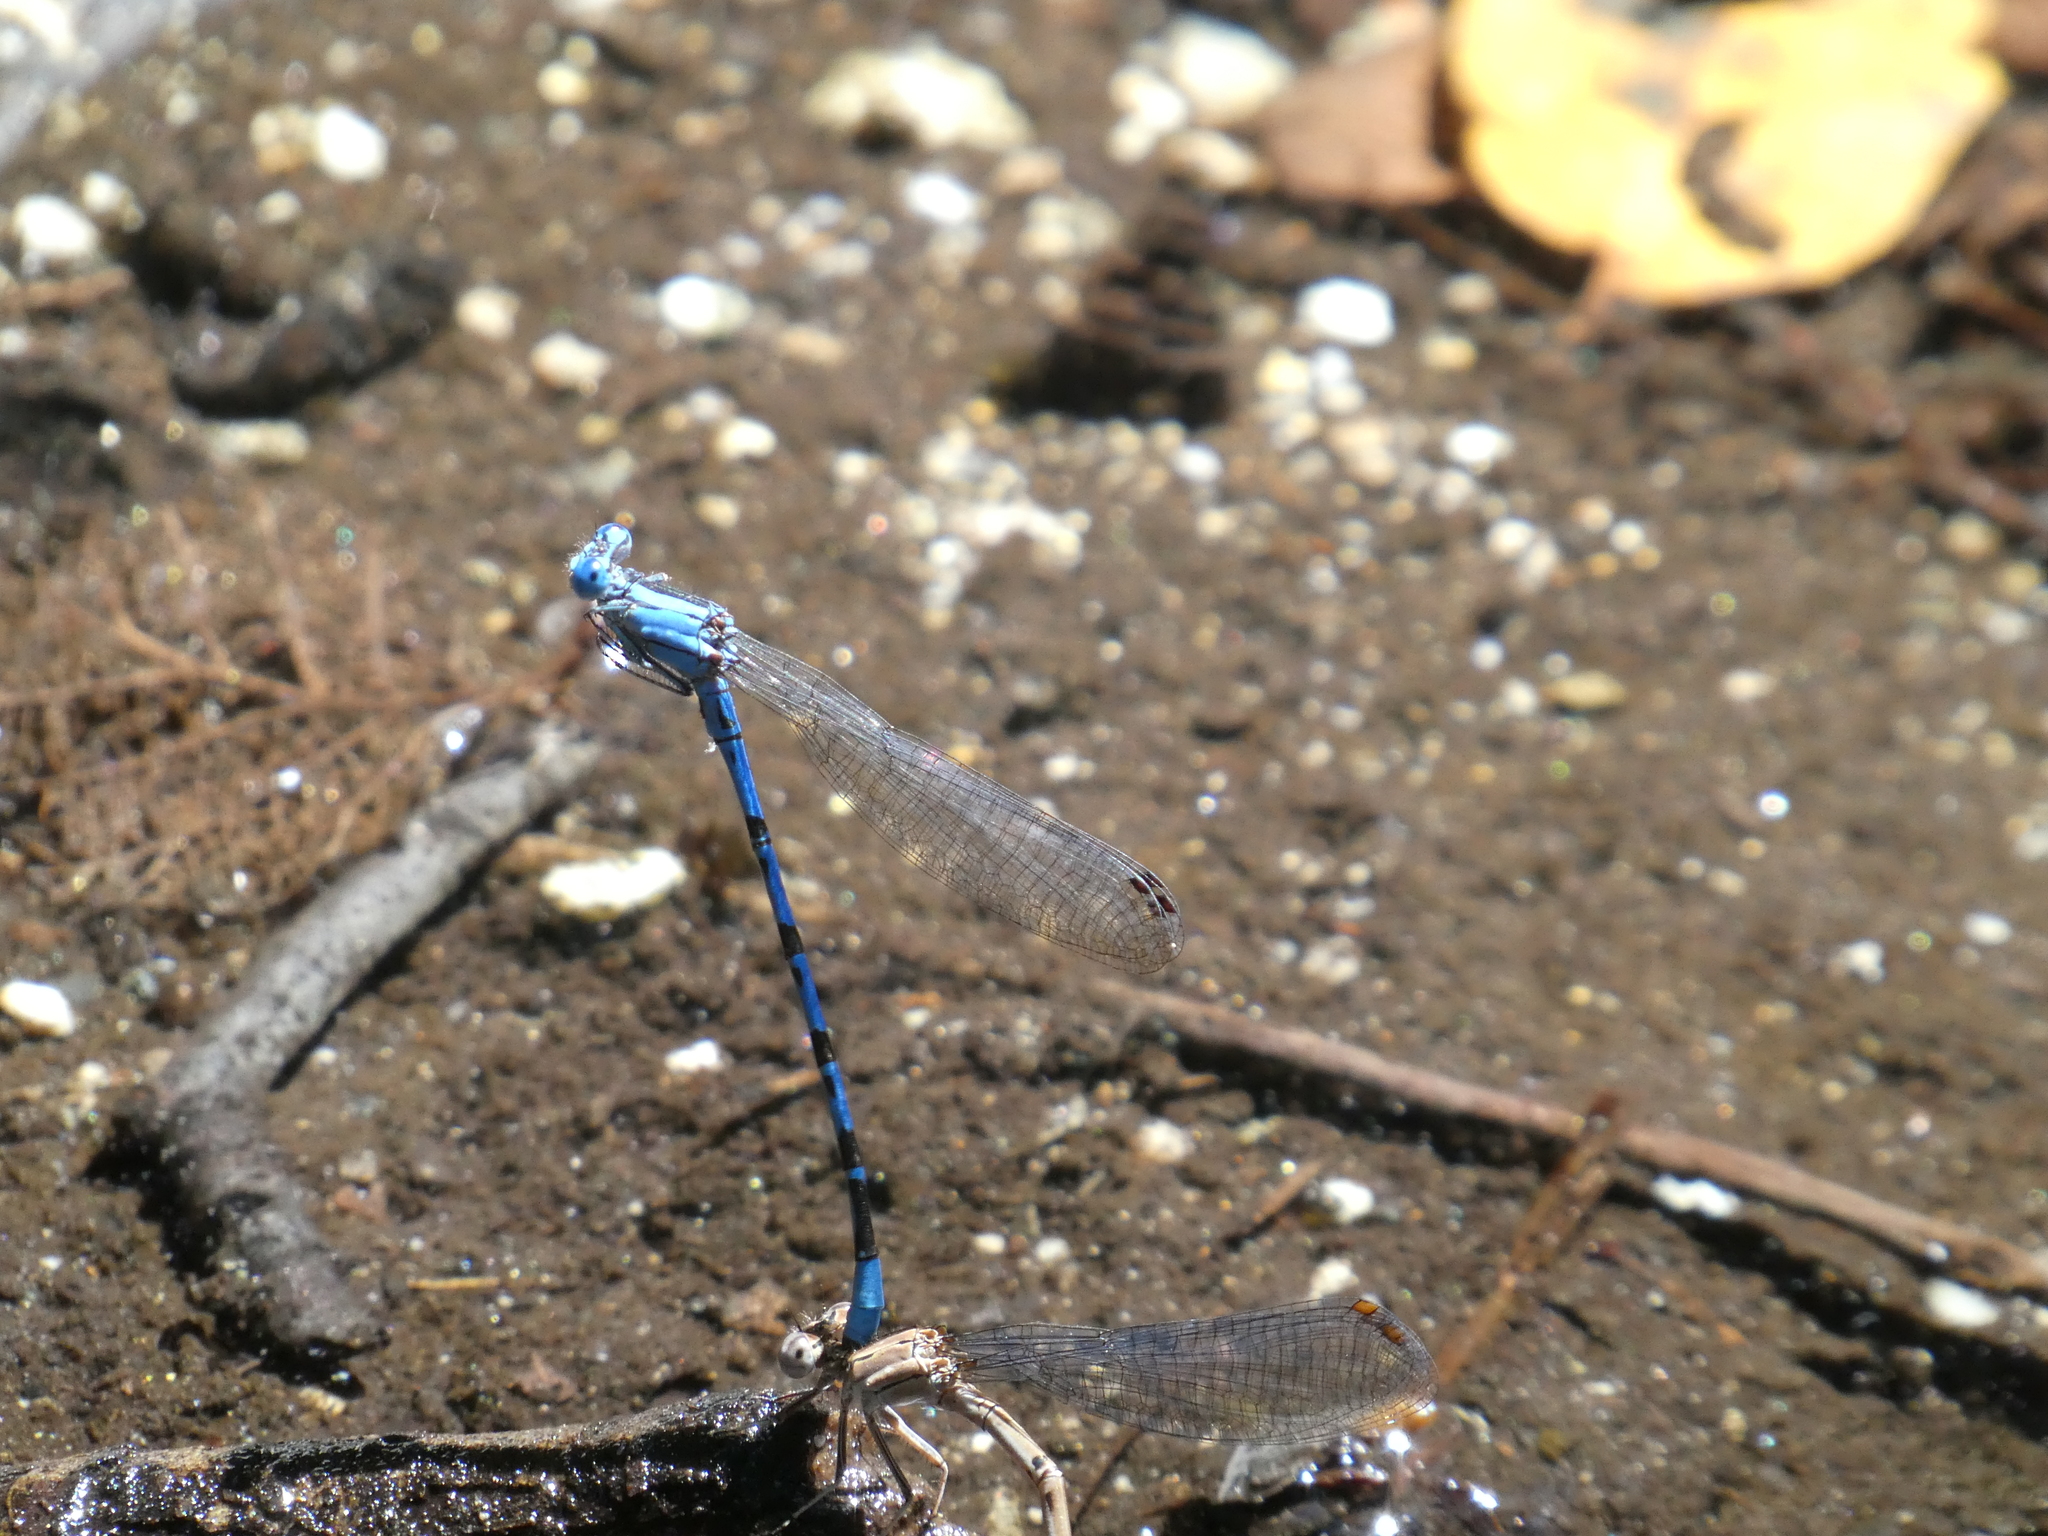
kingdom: Animalia
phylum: Arthropoda
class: Insecta
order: Odonata
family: Coenagrionidae
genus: Argia
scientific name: Argia vivida
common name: Vivid dancer
